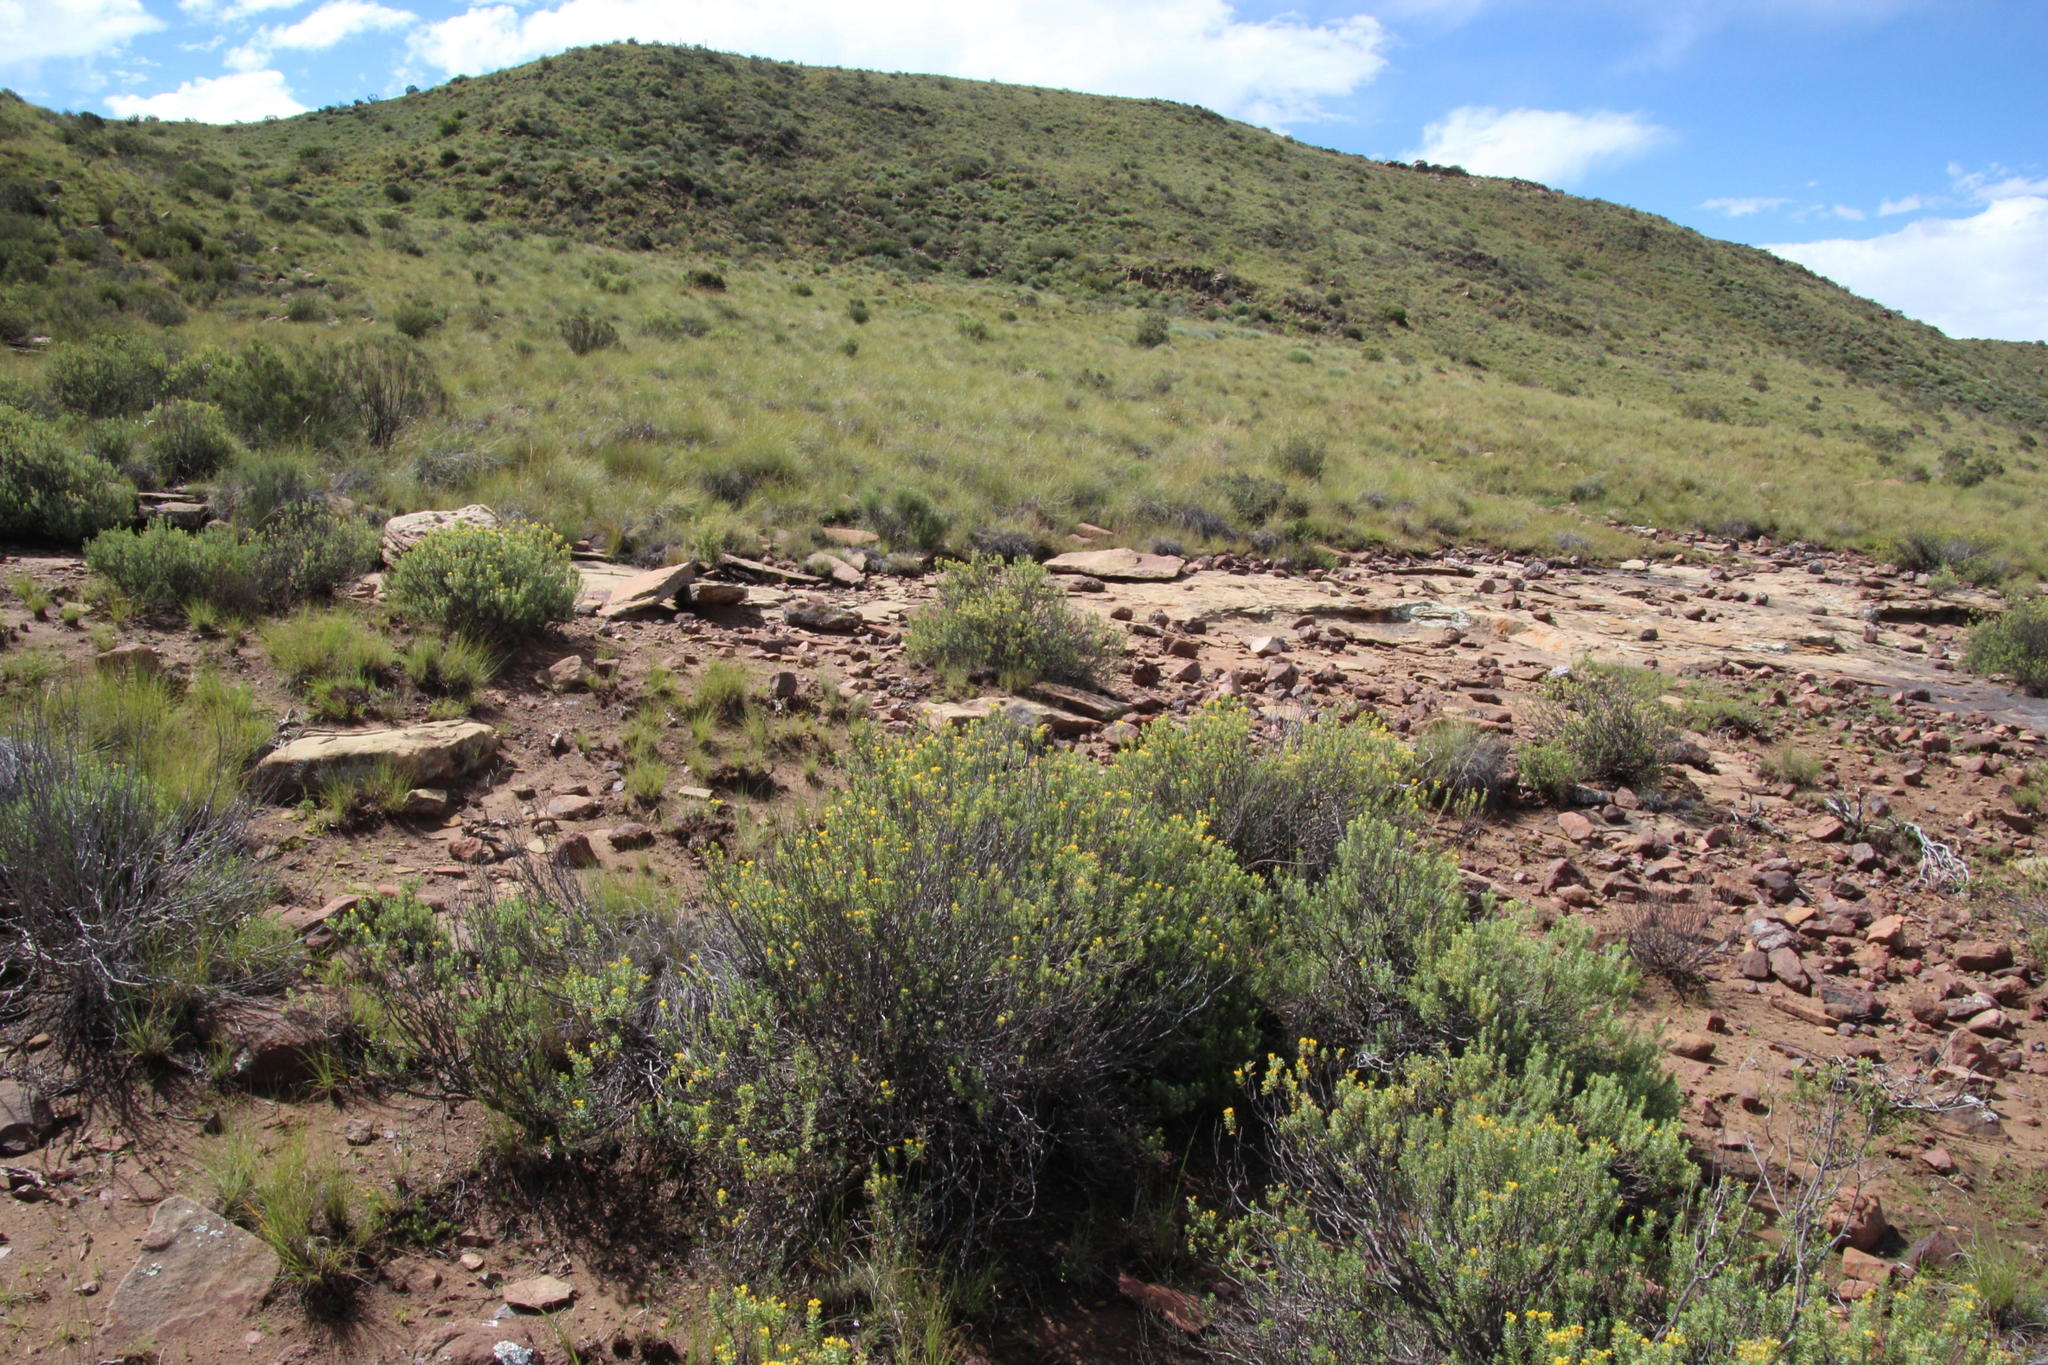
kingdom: Plantae
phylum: Tracheophyta
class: Magnoliopsida
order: Asterales
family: Asteraceae
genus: Euryops
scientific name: Euryops nodosus
